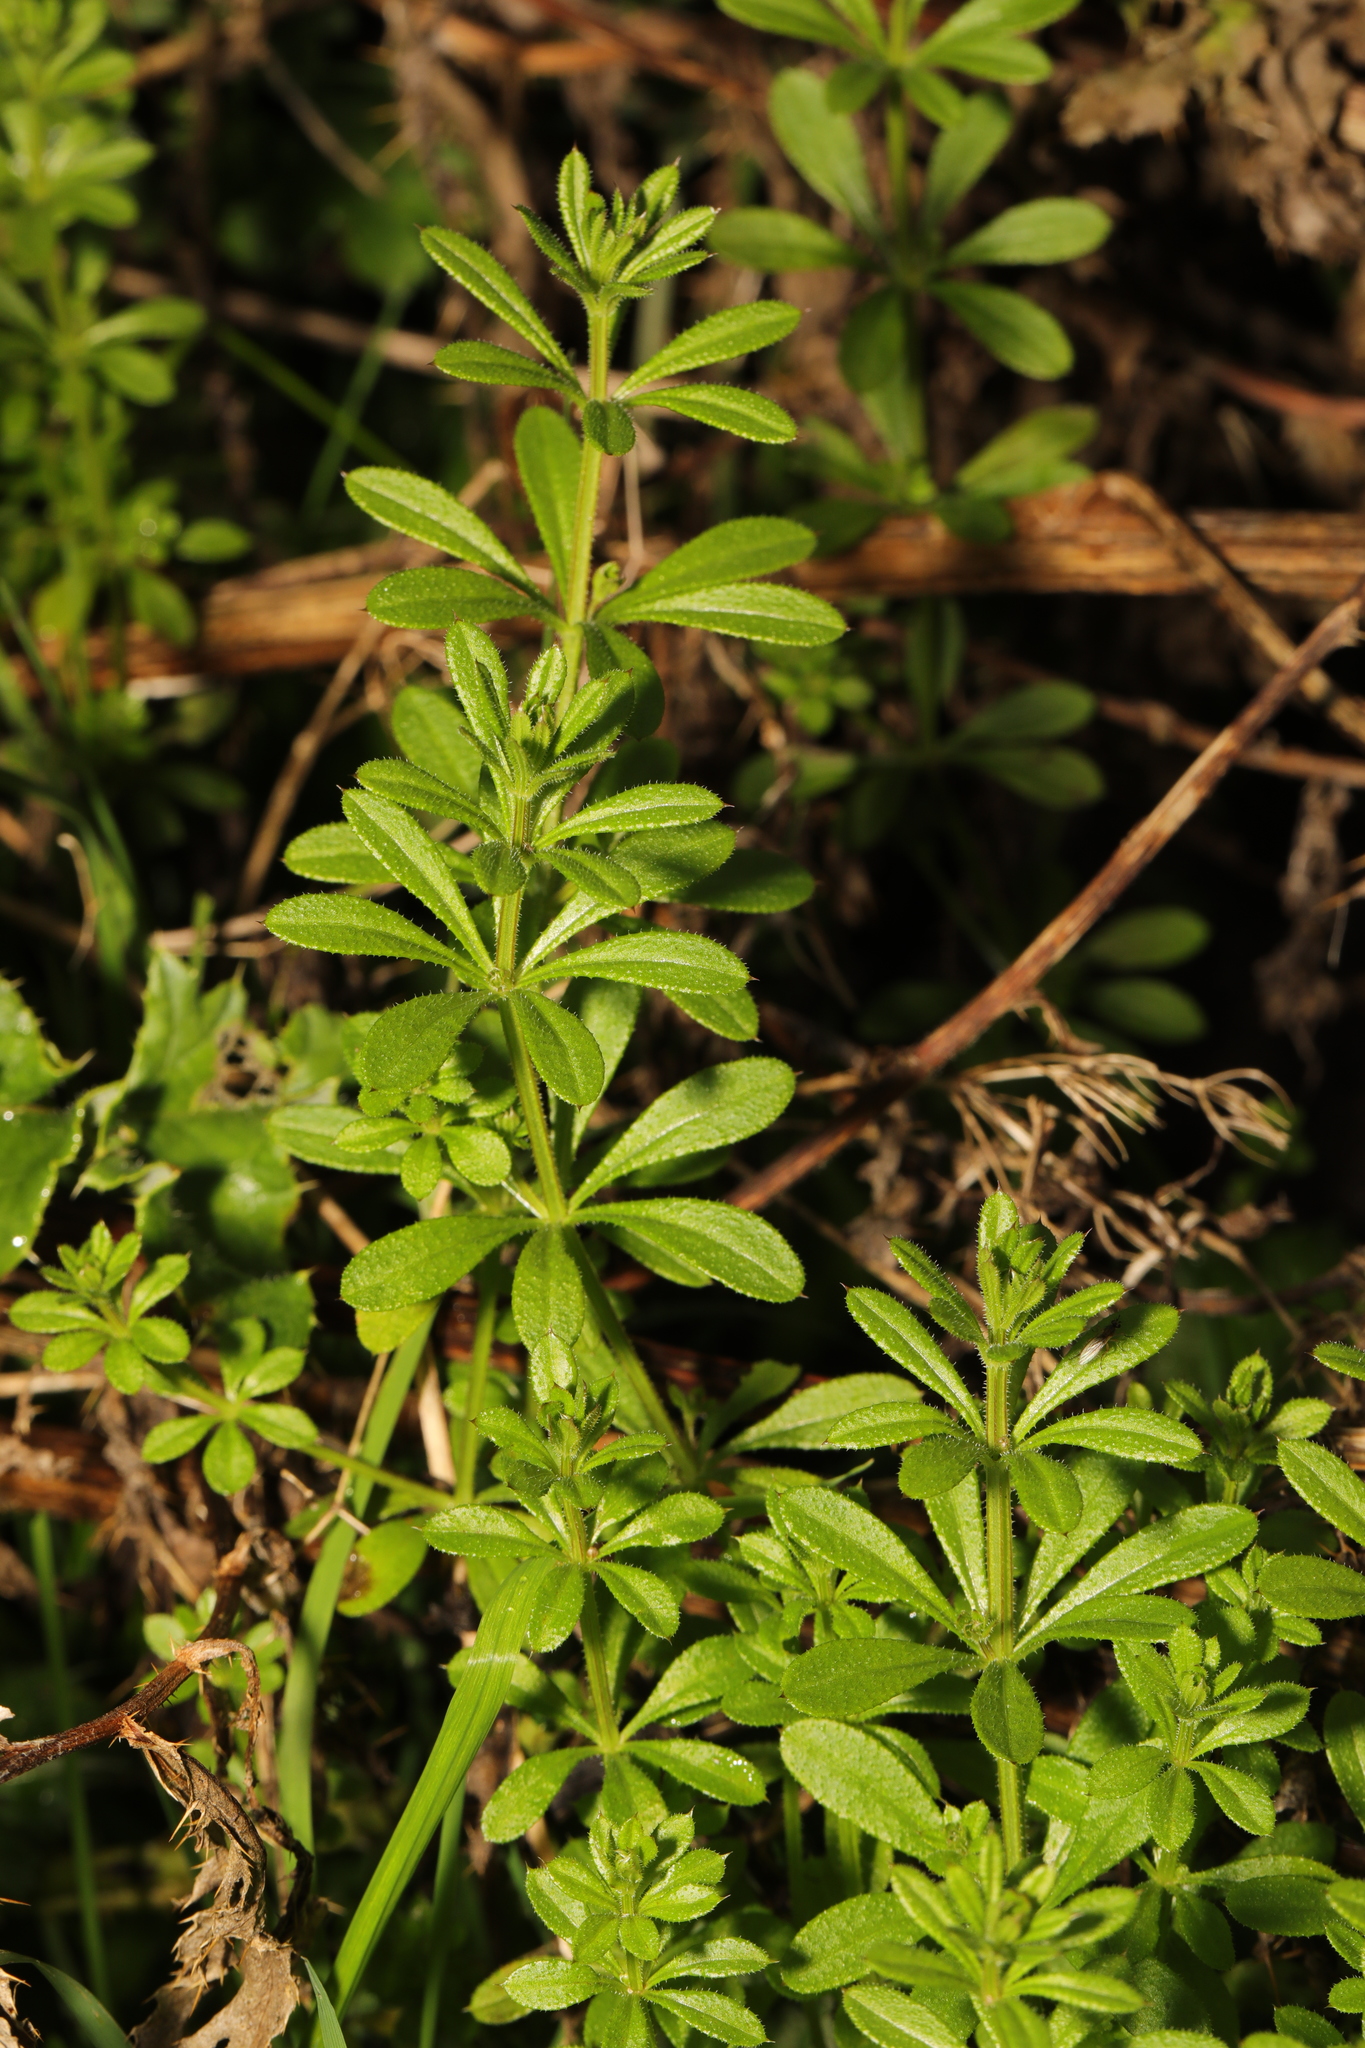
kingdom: Plantae
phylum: Tracheophyta
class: Magnoliopsida
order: Gentianales
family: Rubiaceae
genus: Galium
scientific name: Galium aparine
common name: Cleavers
